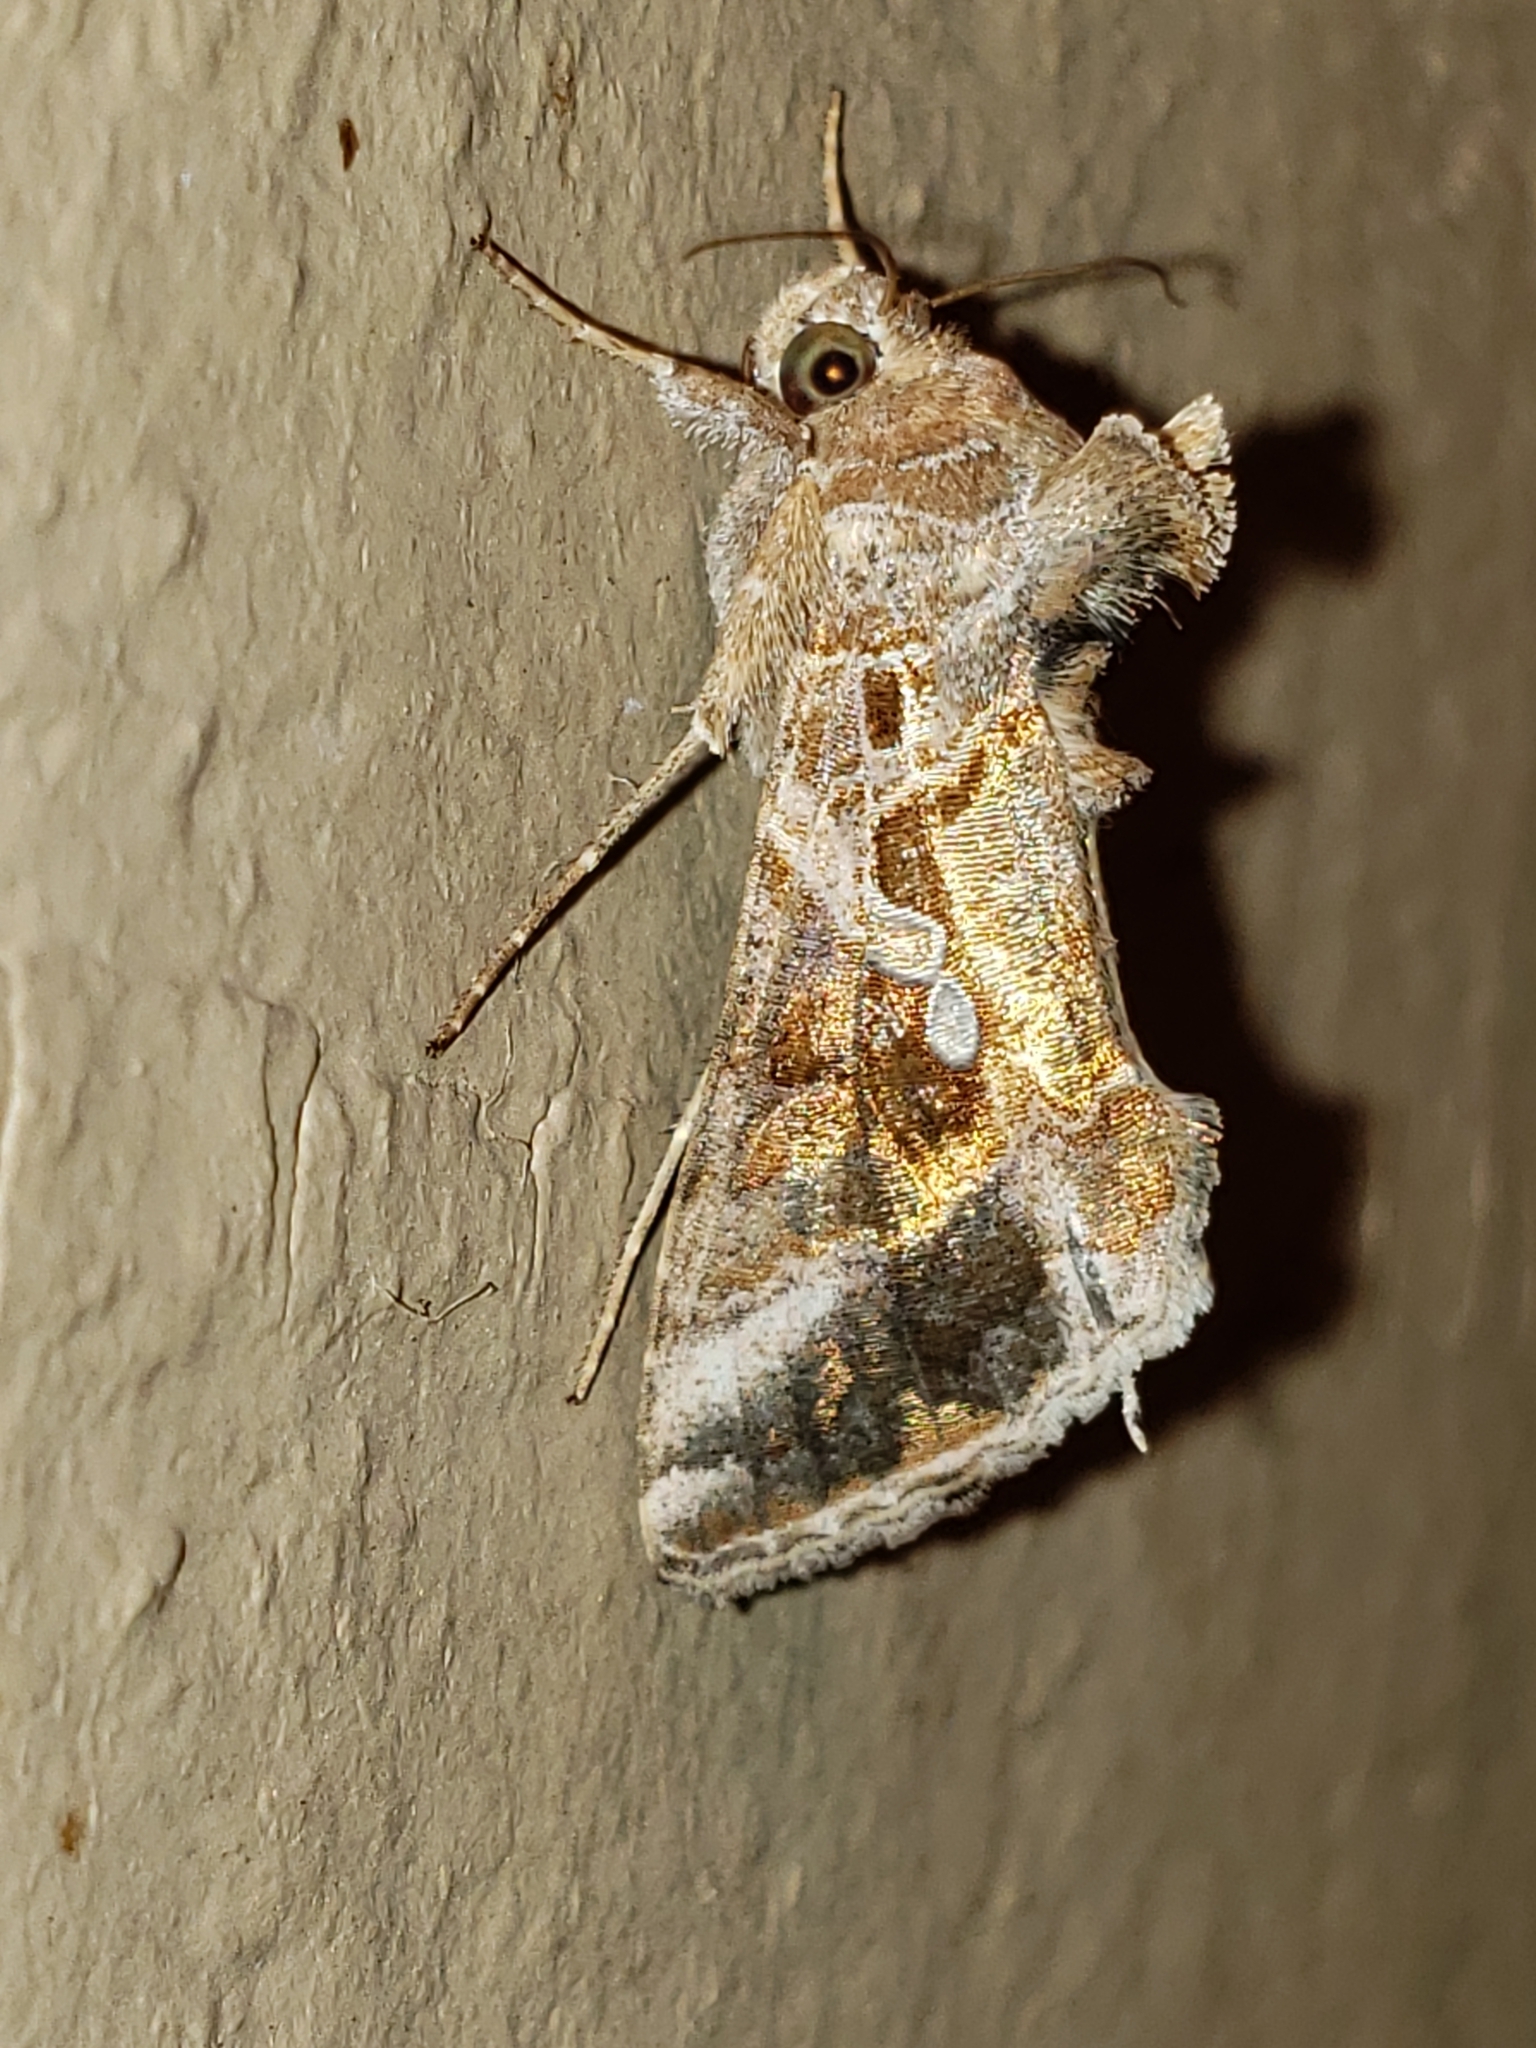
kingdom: Animalia
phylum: Arthropoda
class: Insecta
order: Lepidoptera
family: Noctuidae
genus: Chrysodeixis
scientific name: Chrysodeixis includens
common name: Cutworm moth
